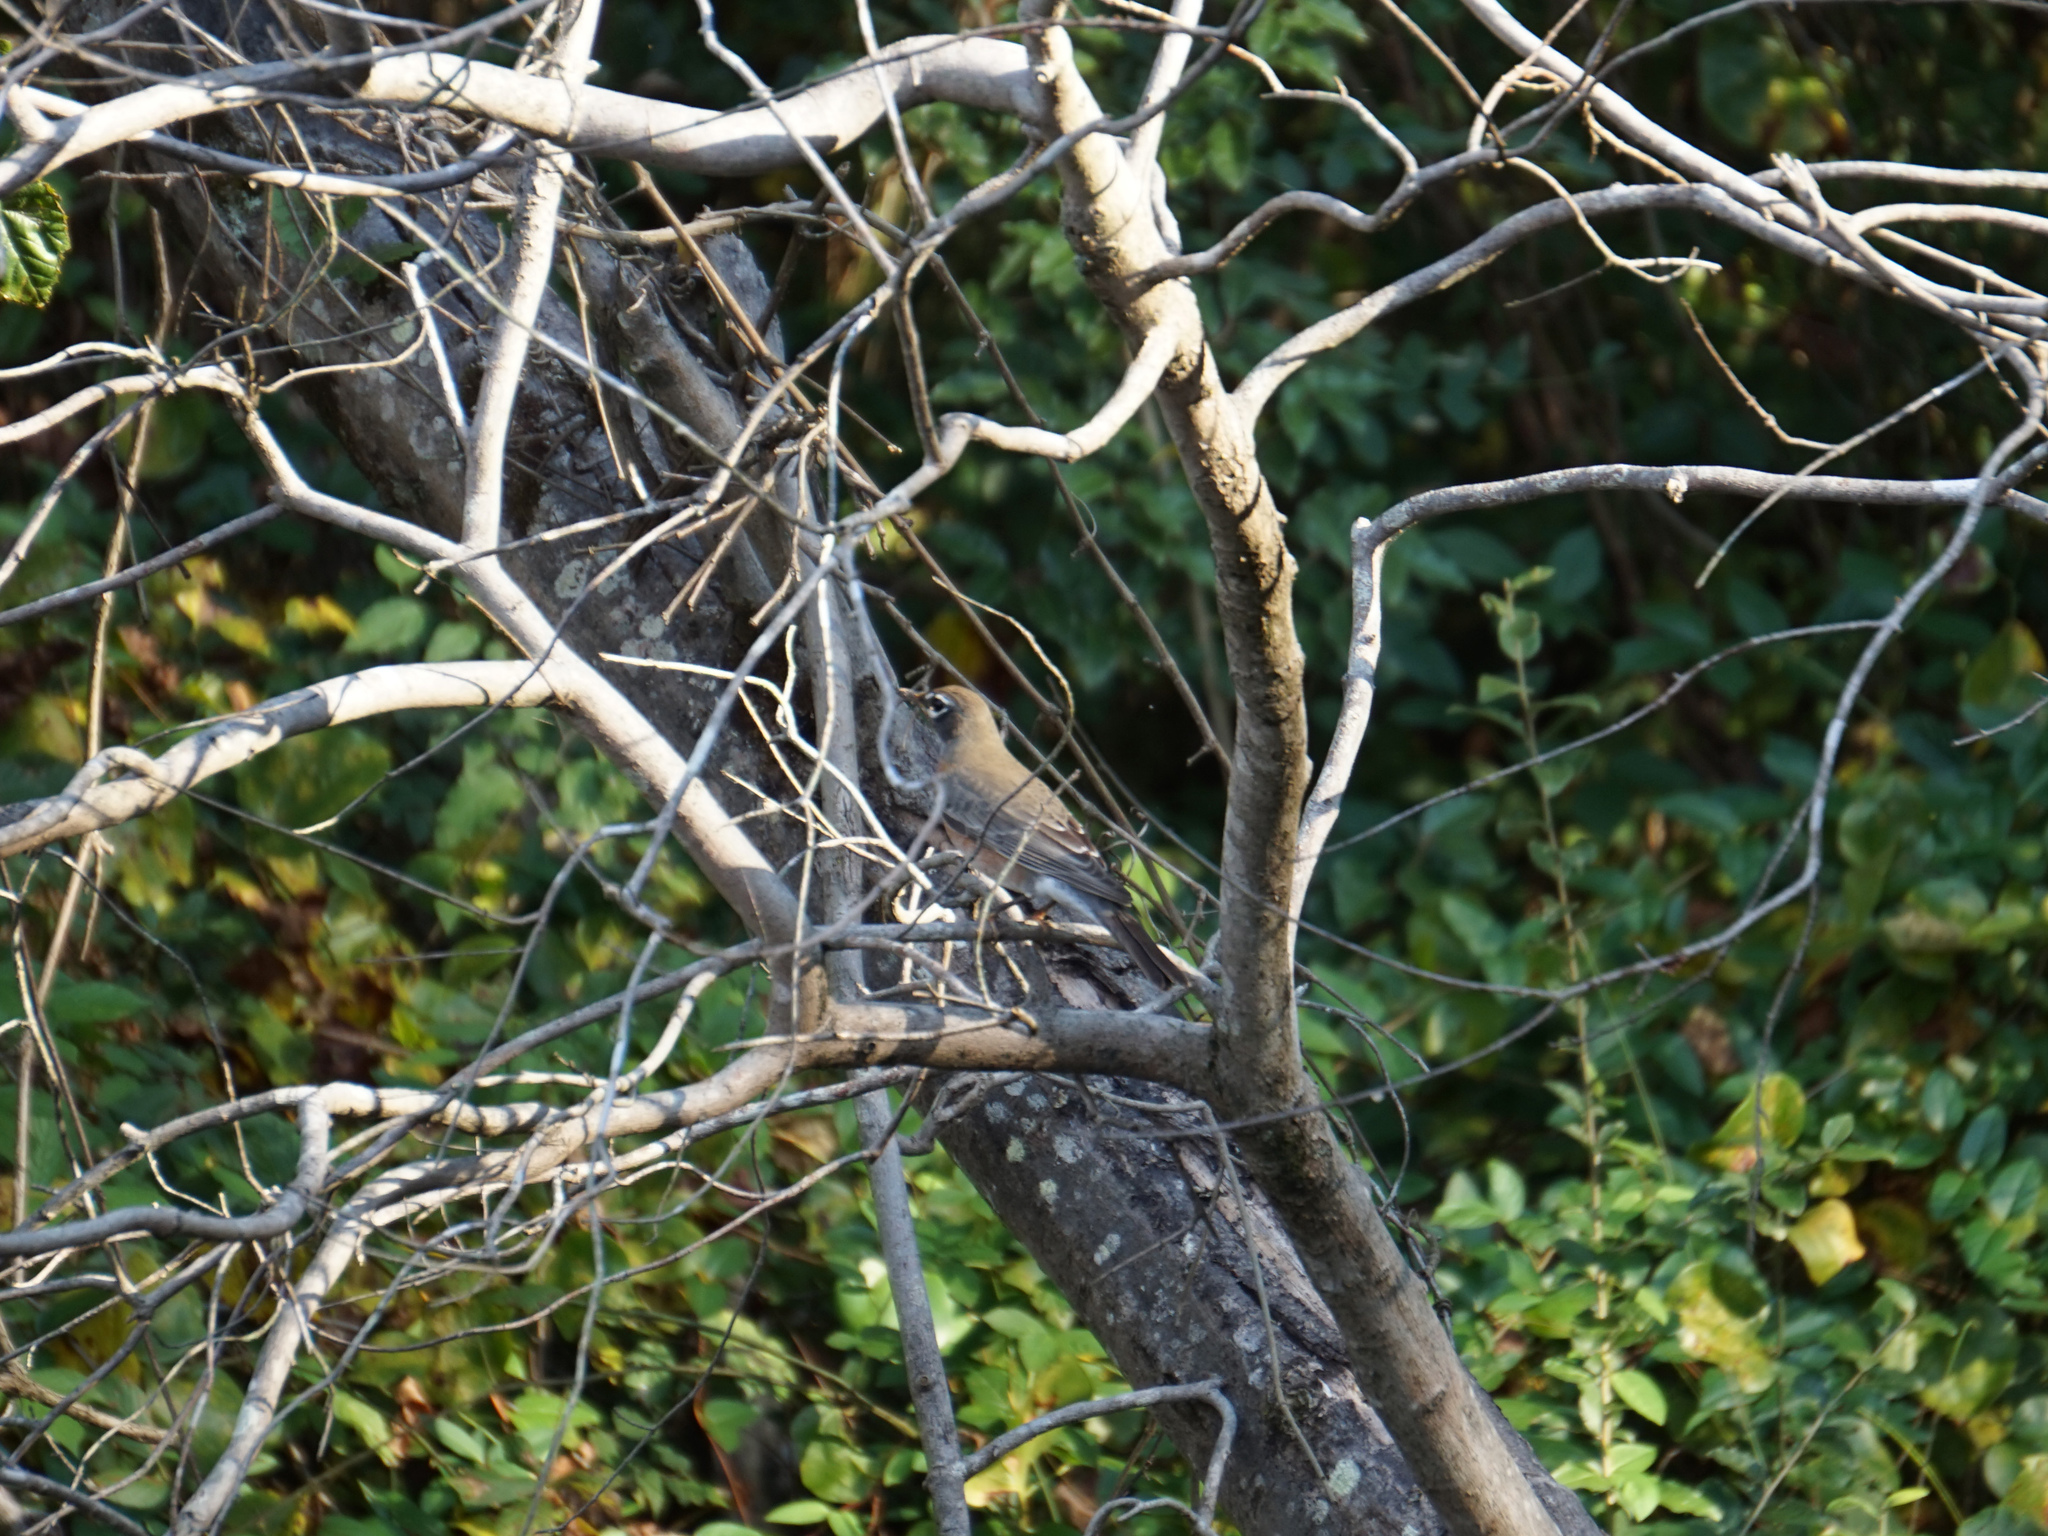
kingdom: Animalia
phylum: Chordata
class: Aves
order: Passeriformes
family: Turdidae
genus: Turdus
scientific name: Turdus migratorius
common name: American robin
